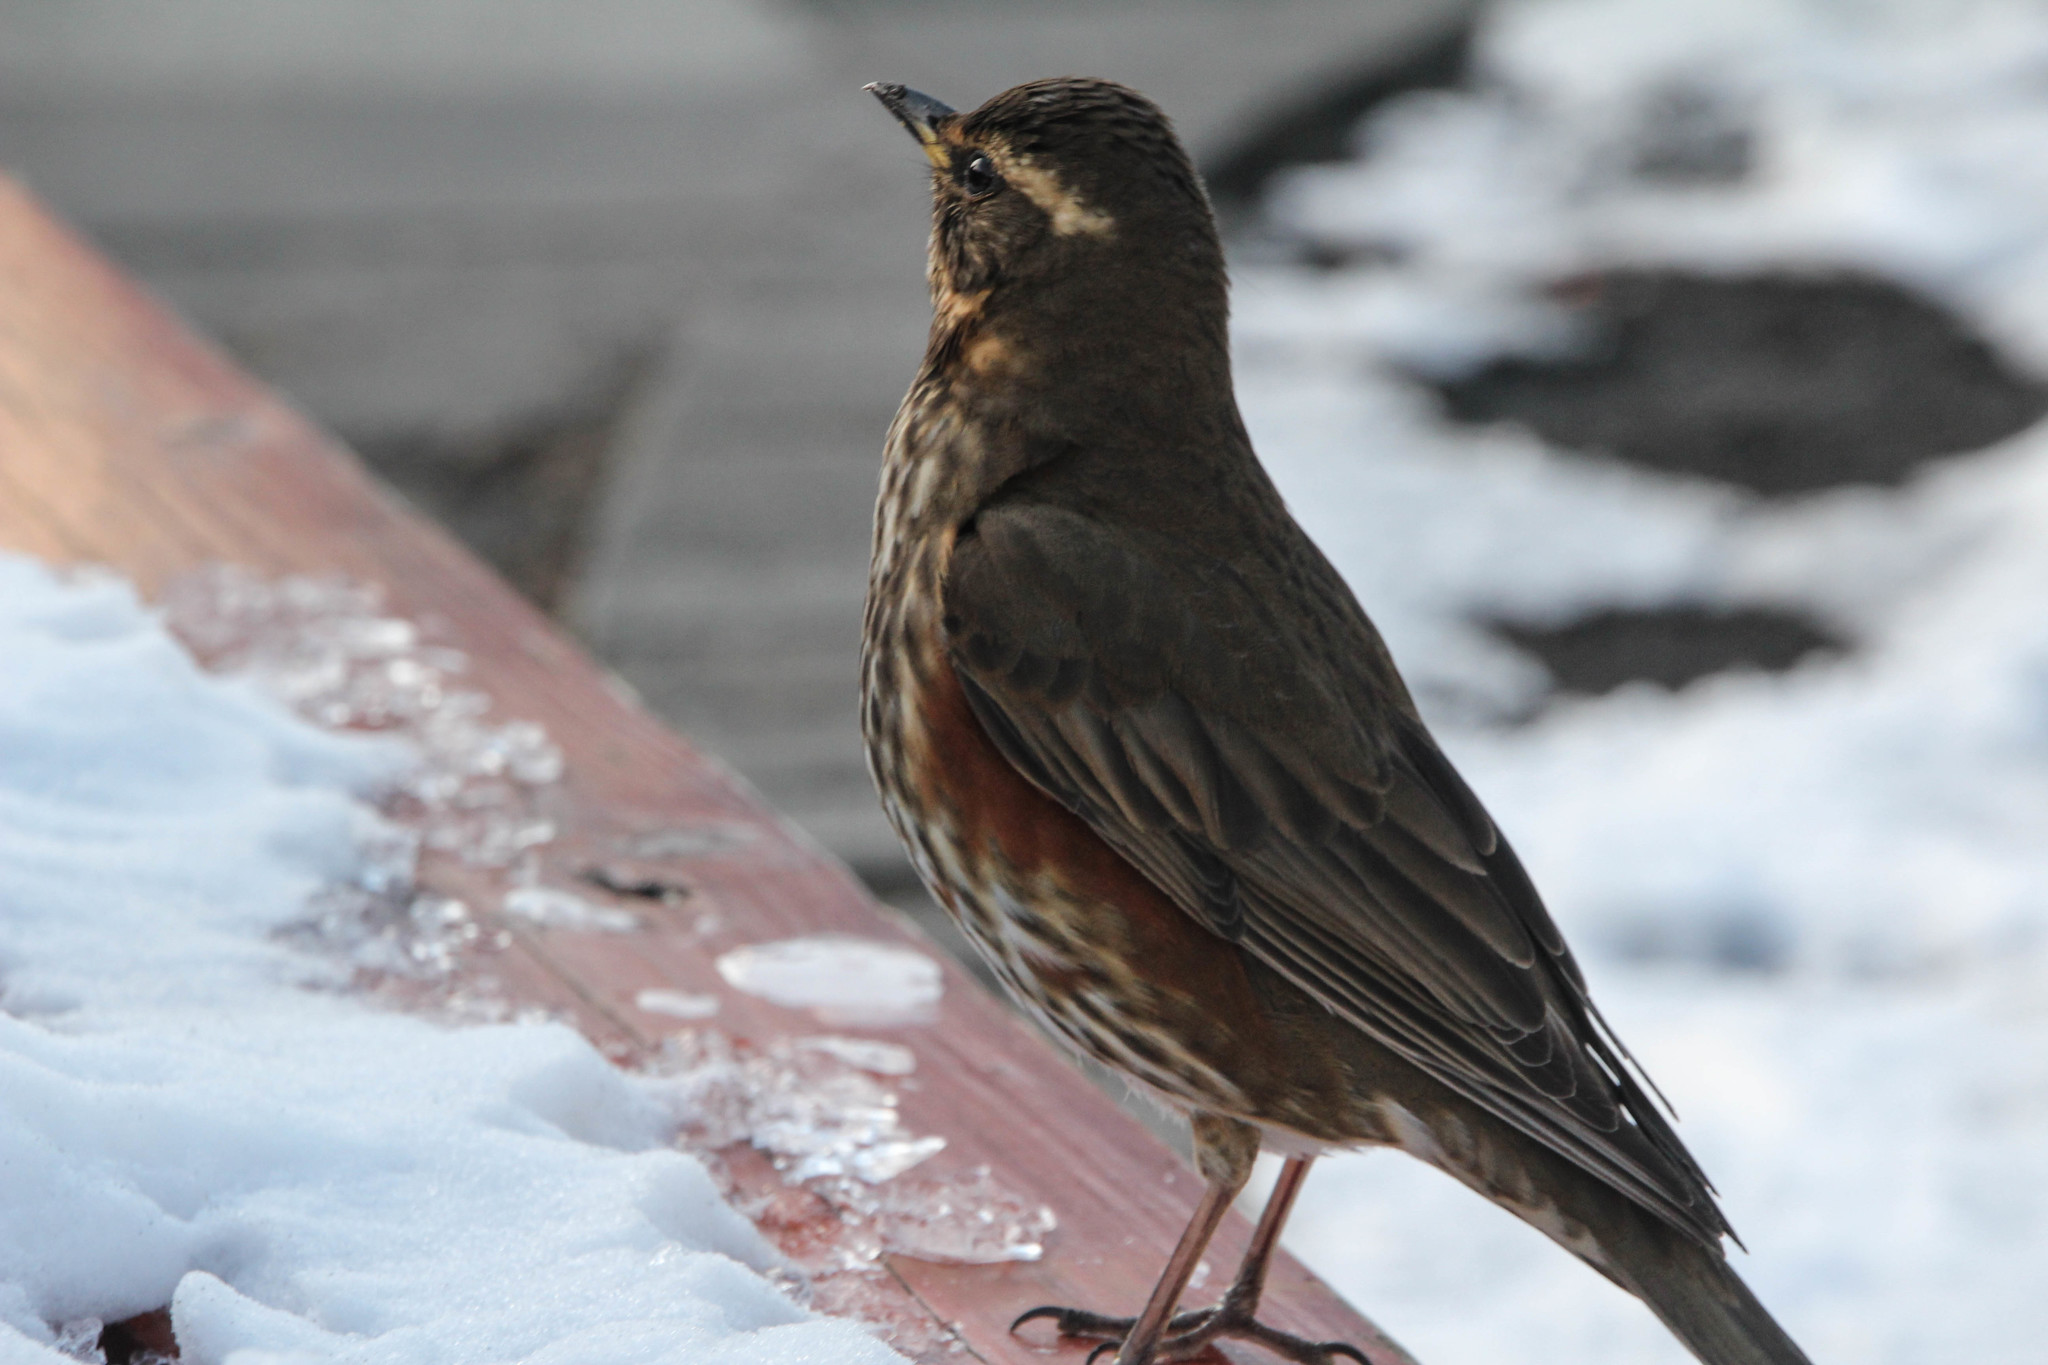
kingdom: Animalia
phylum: Chordata
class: Aves
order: Passeriformes
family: Turdidae
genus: Turdus
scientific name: Turdus iliacus
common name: Redwing
